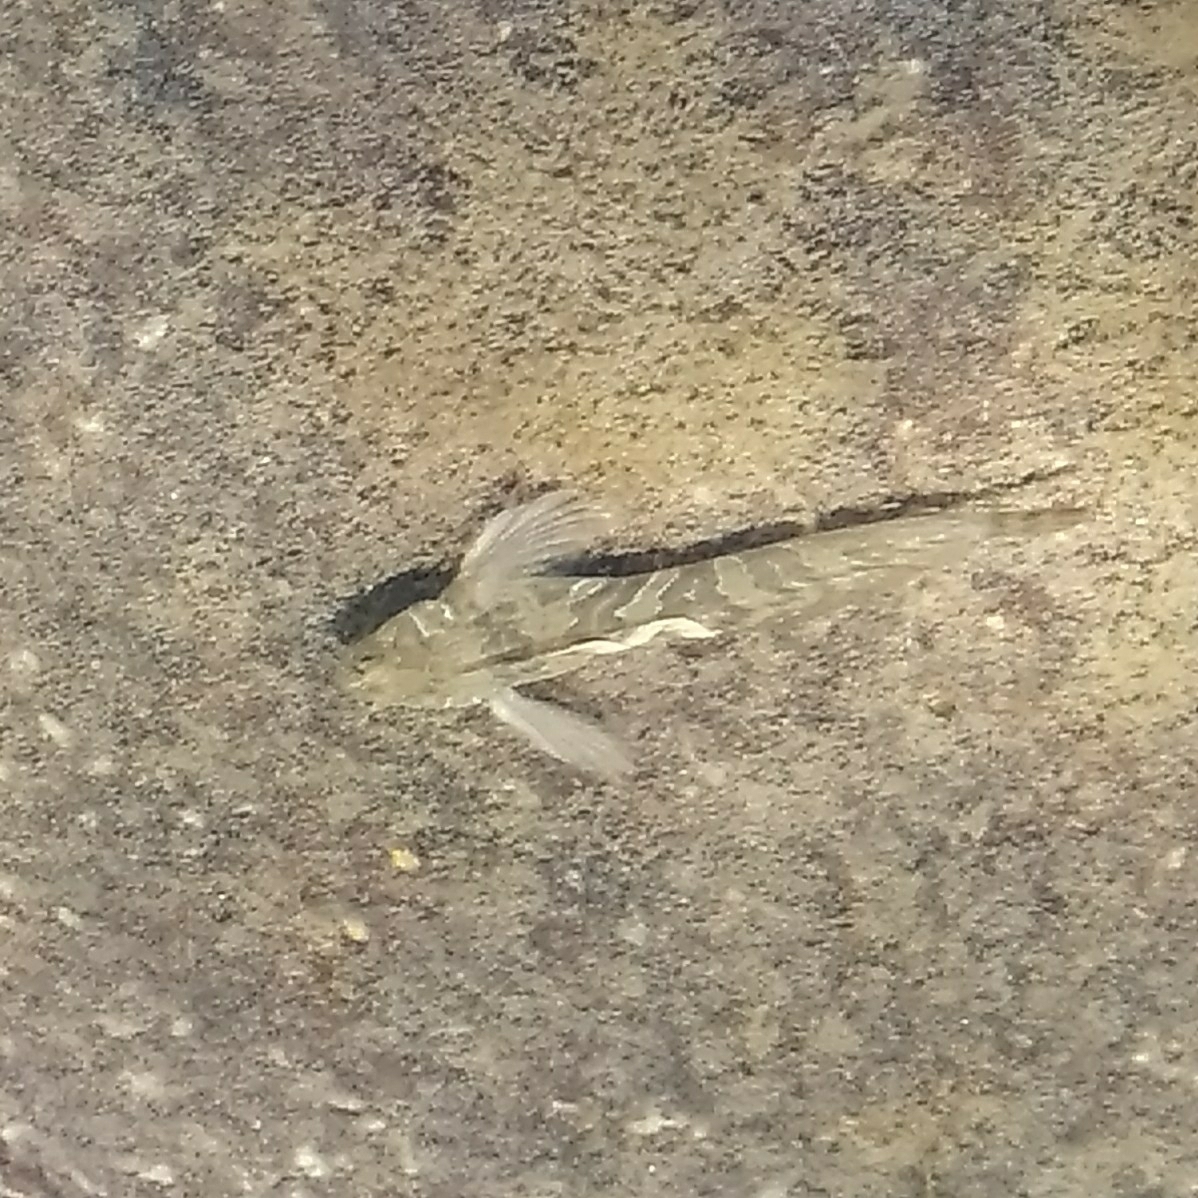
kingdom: Animalia
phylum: Chordata
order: Perciformes
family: Blenniidae
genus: Aidablennius
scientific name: Aidablennius sphynx
